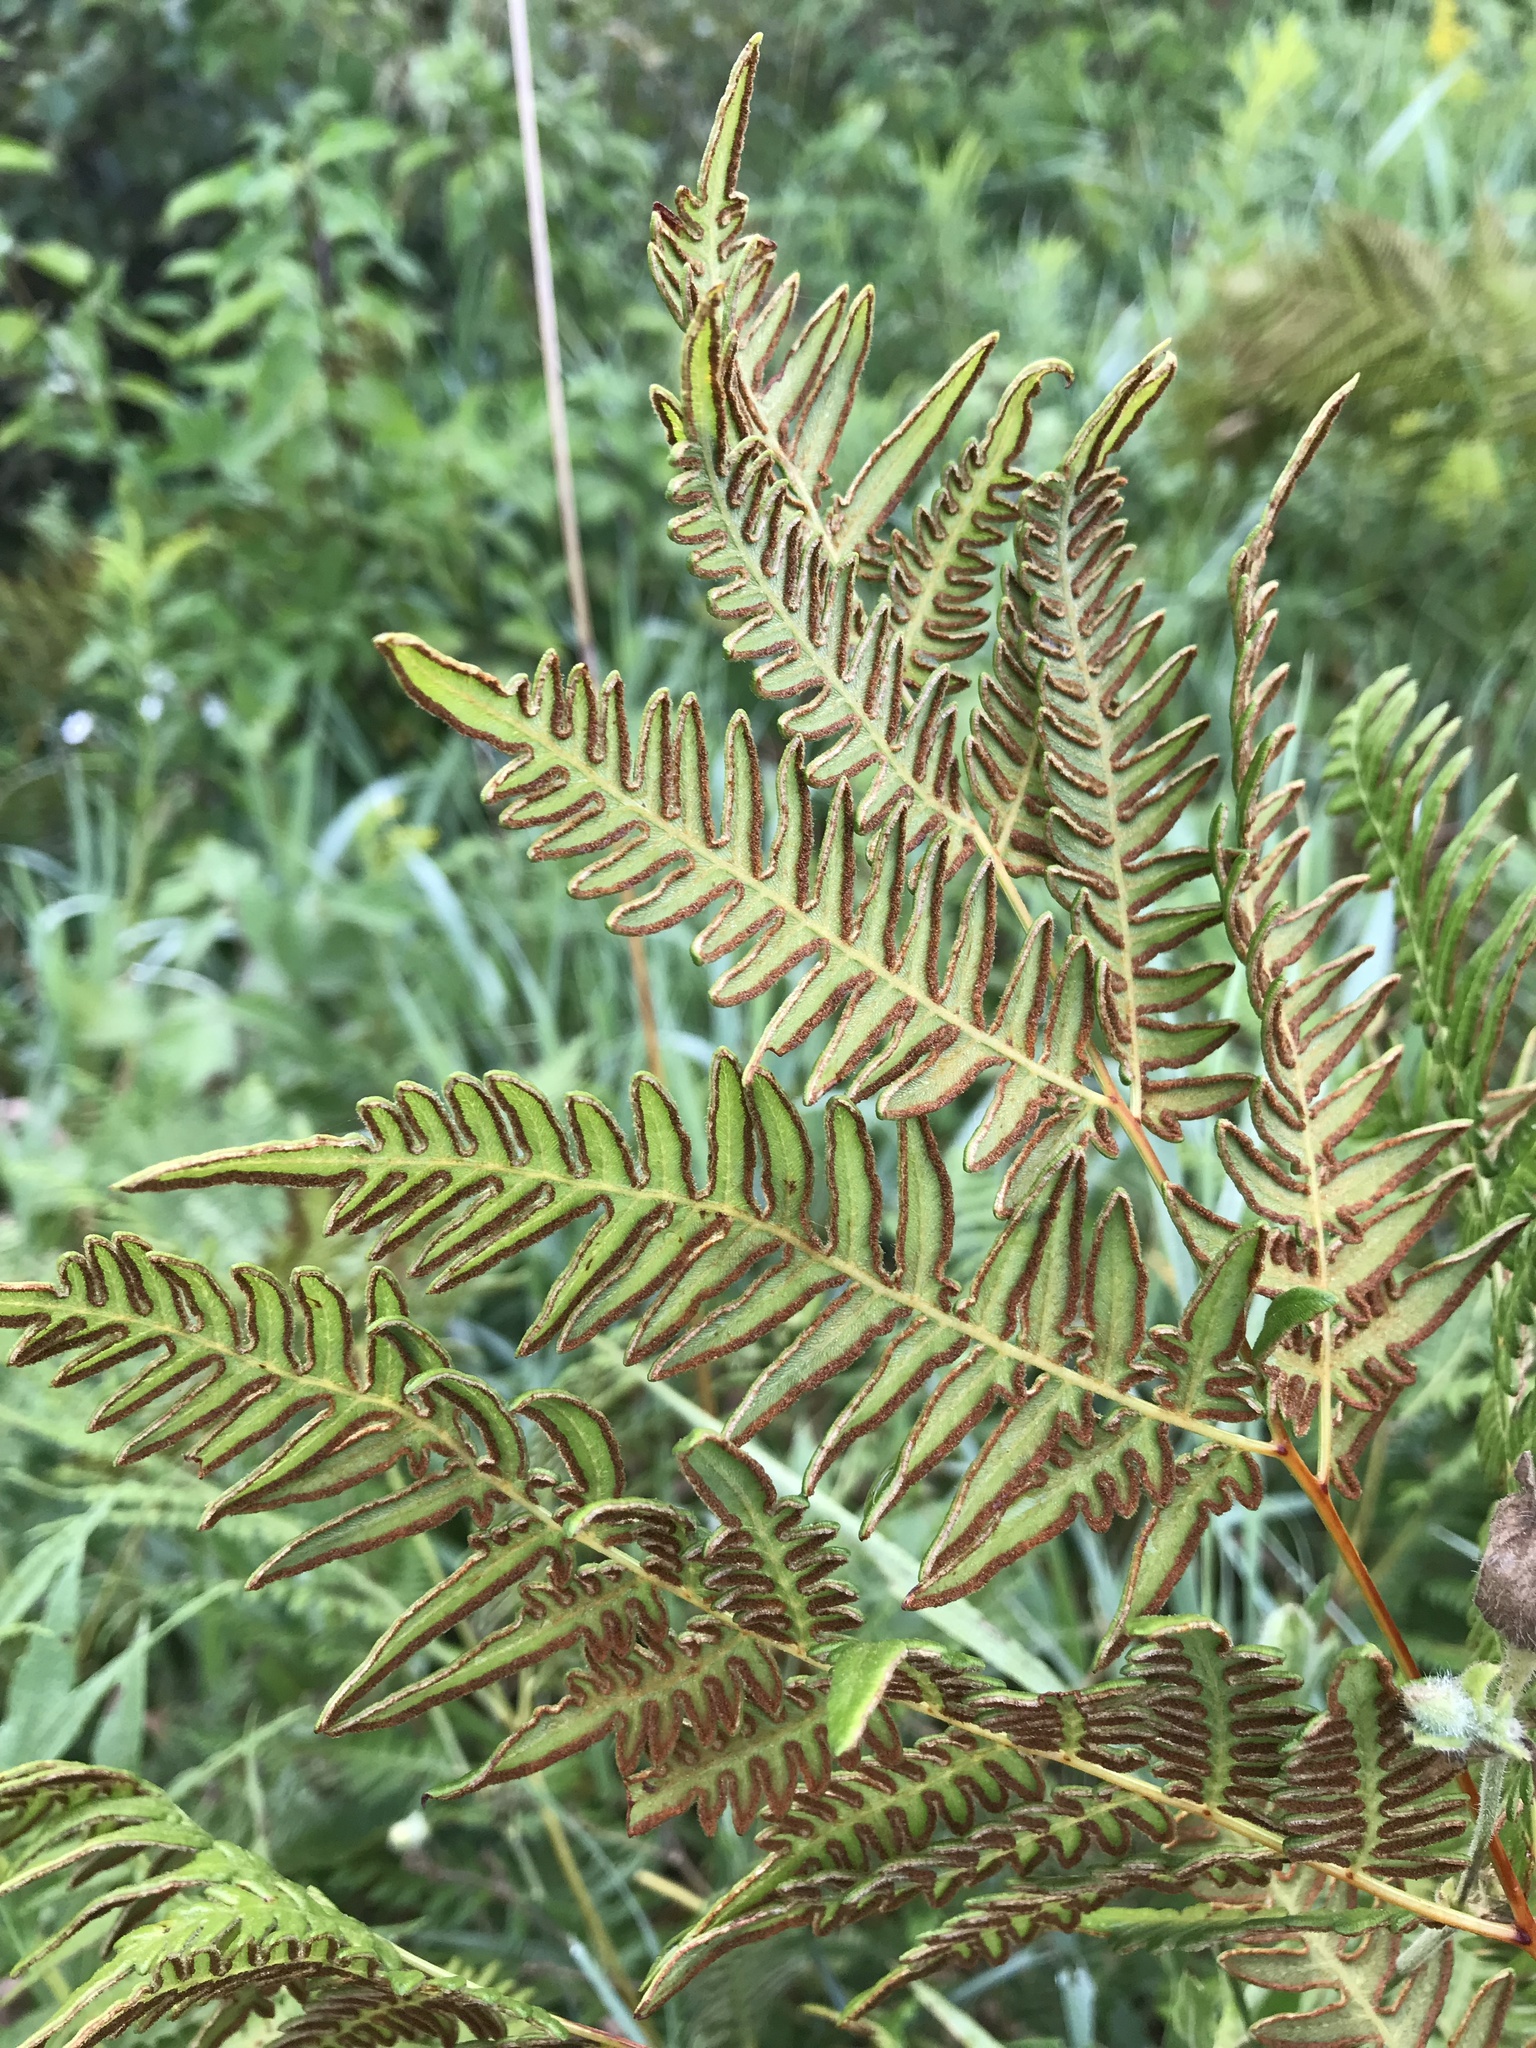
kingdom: Plantae
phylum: Tracheophyta
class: Polypodiopsida
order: Polypodiales
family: Dennstaedtiaceae
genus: Pteridium
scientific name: Pteridium aquilinum
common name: Bracken
